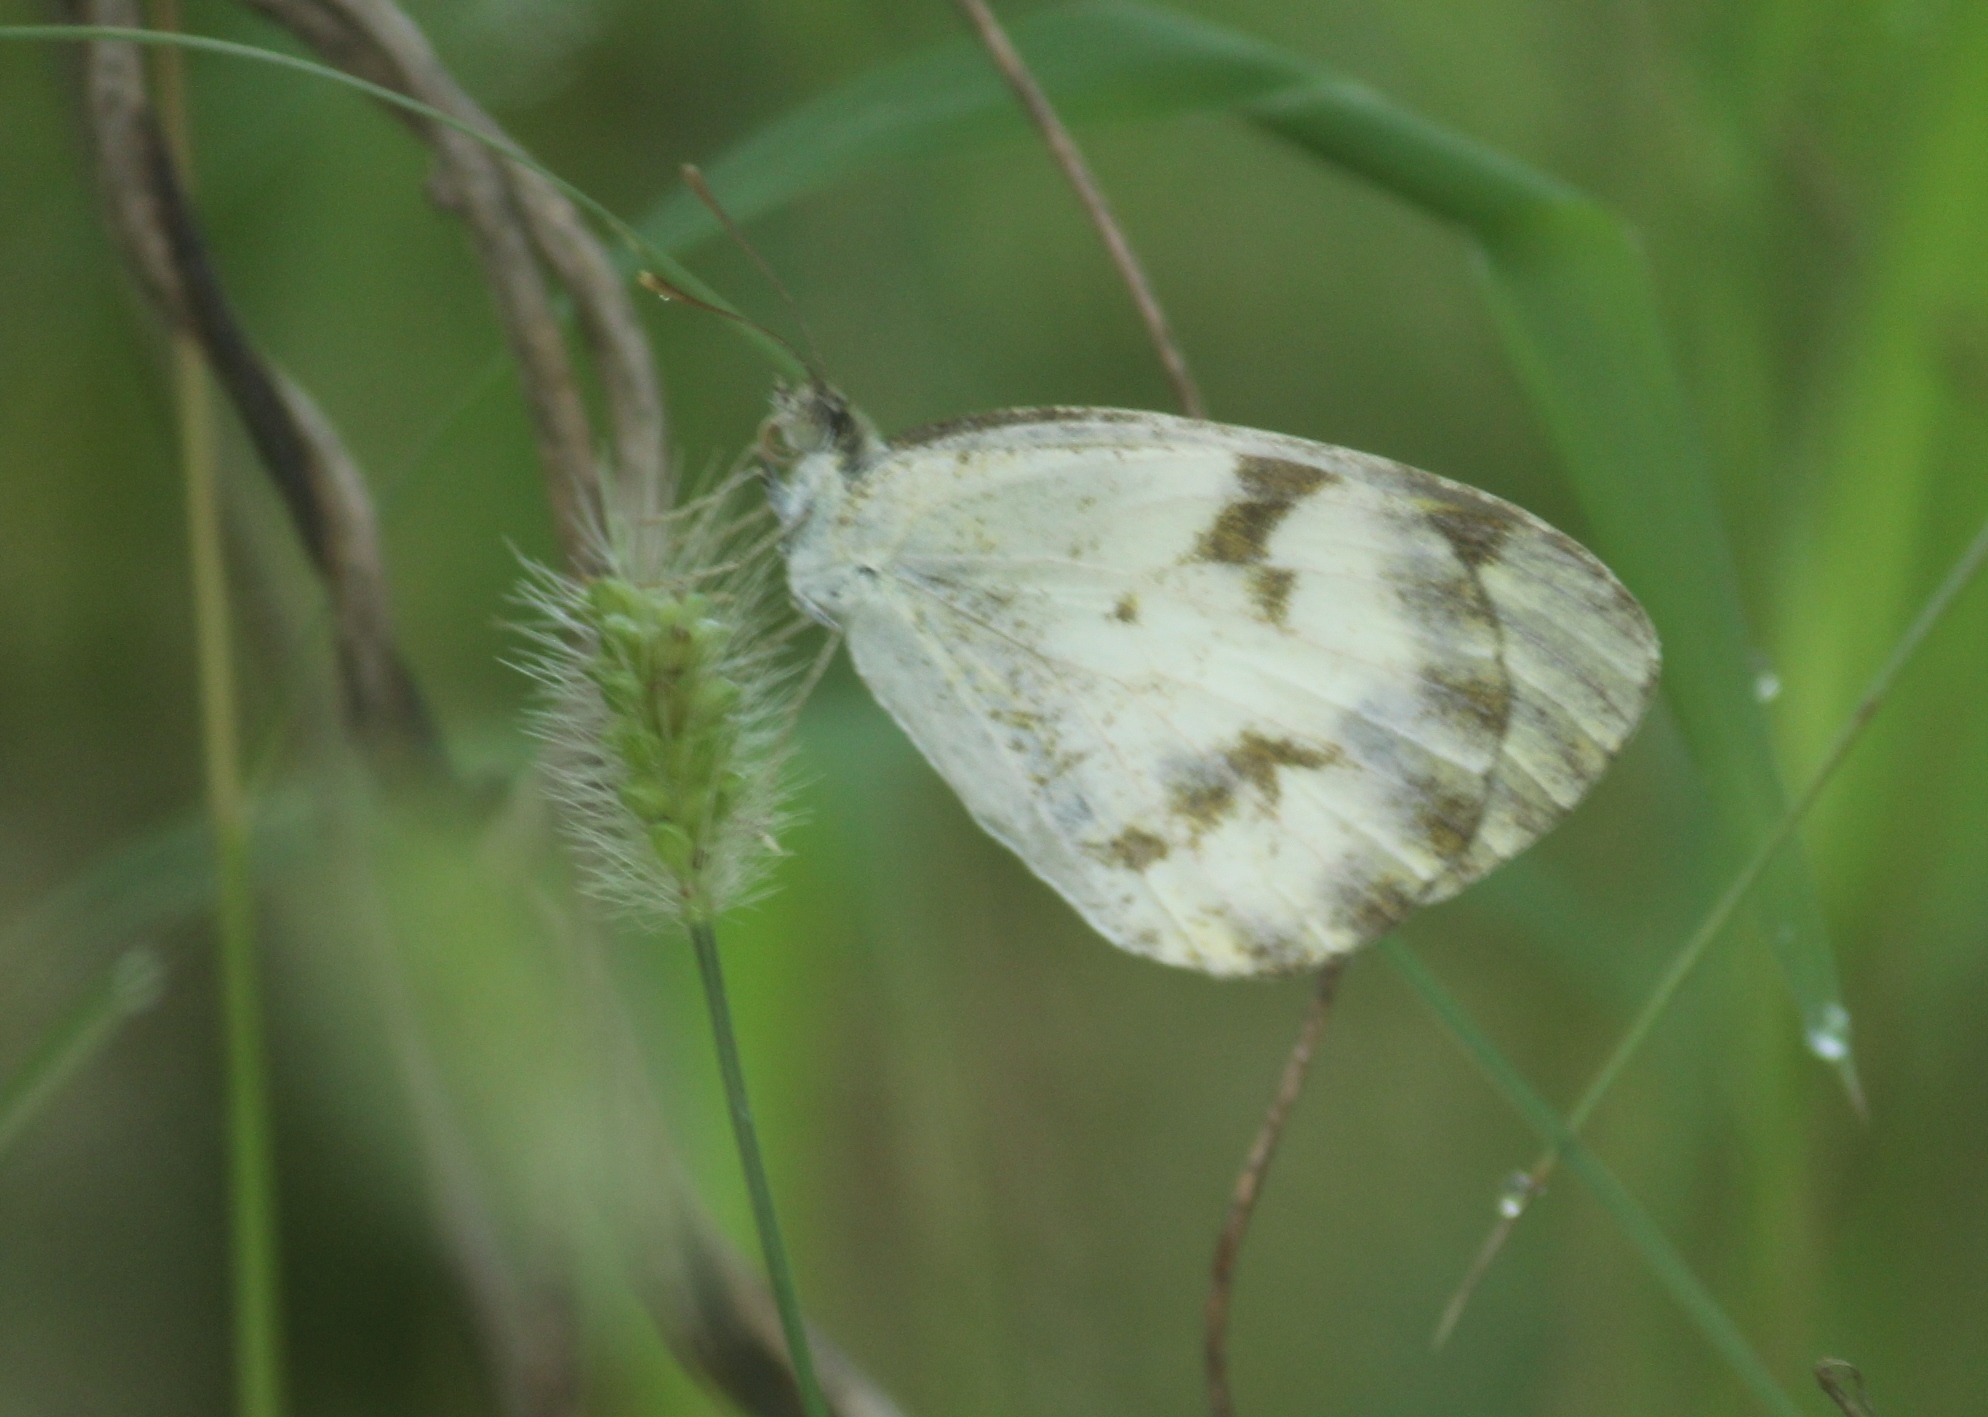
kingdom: Animalia
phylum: Arthropoda
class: Insecta
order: Lepidoptera
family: Pieridae
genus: Colotis
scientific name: Colotis aurora
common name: Plain orange-tip
